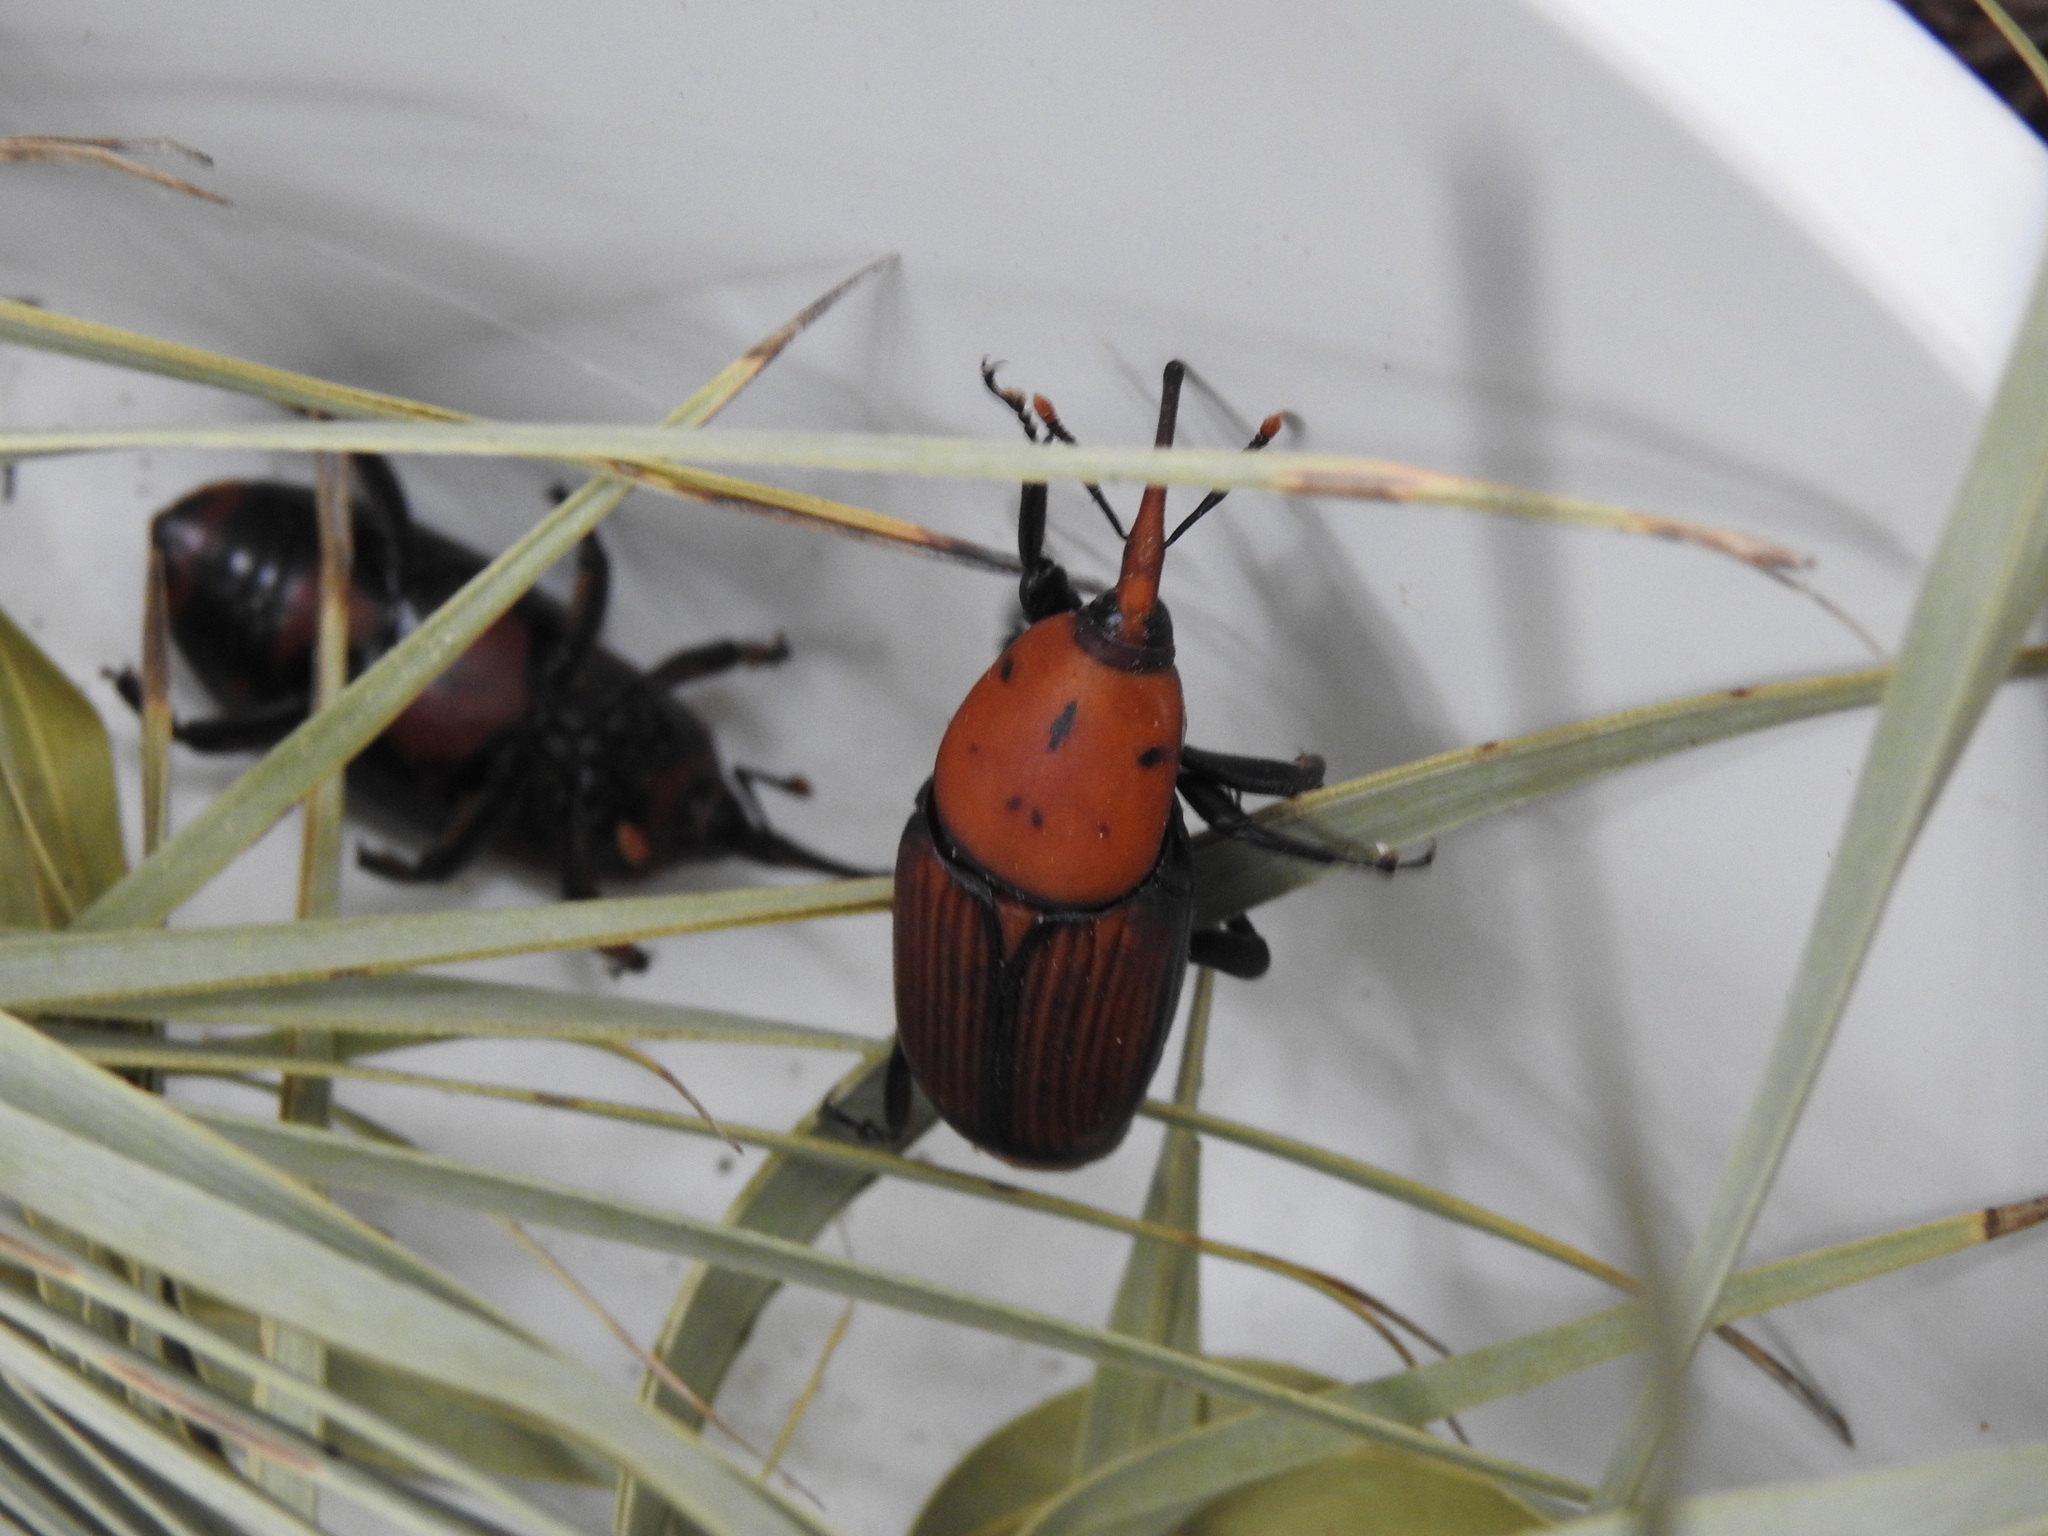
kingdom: Animalia
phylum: Arthropoda
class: Insecta
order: Coleoptera
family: Dryophthoridae
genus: Rhynchophorus
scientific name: Rhynchophorus ferrugineus
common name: Red palm weevil
